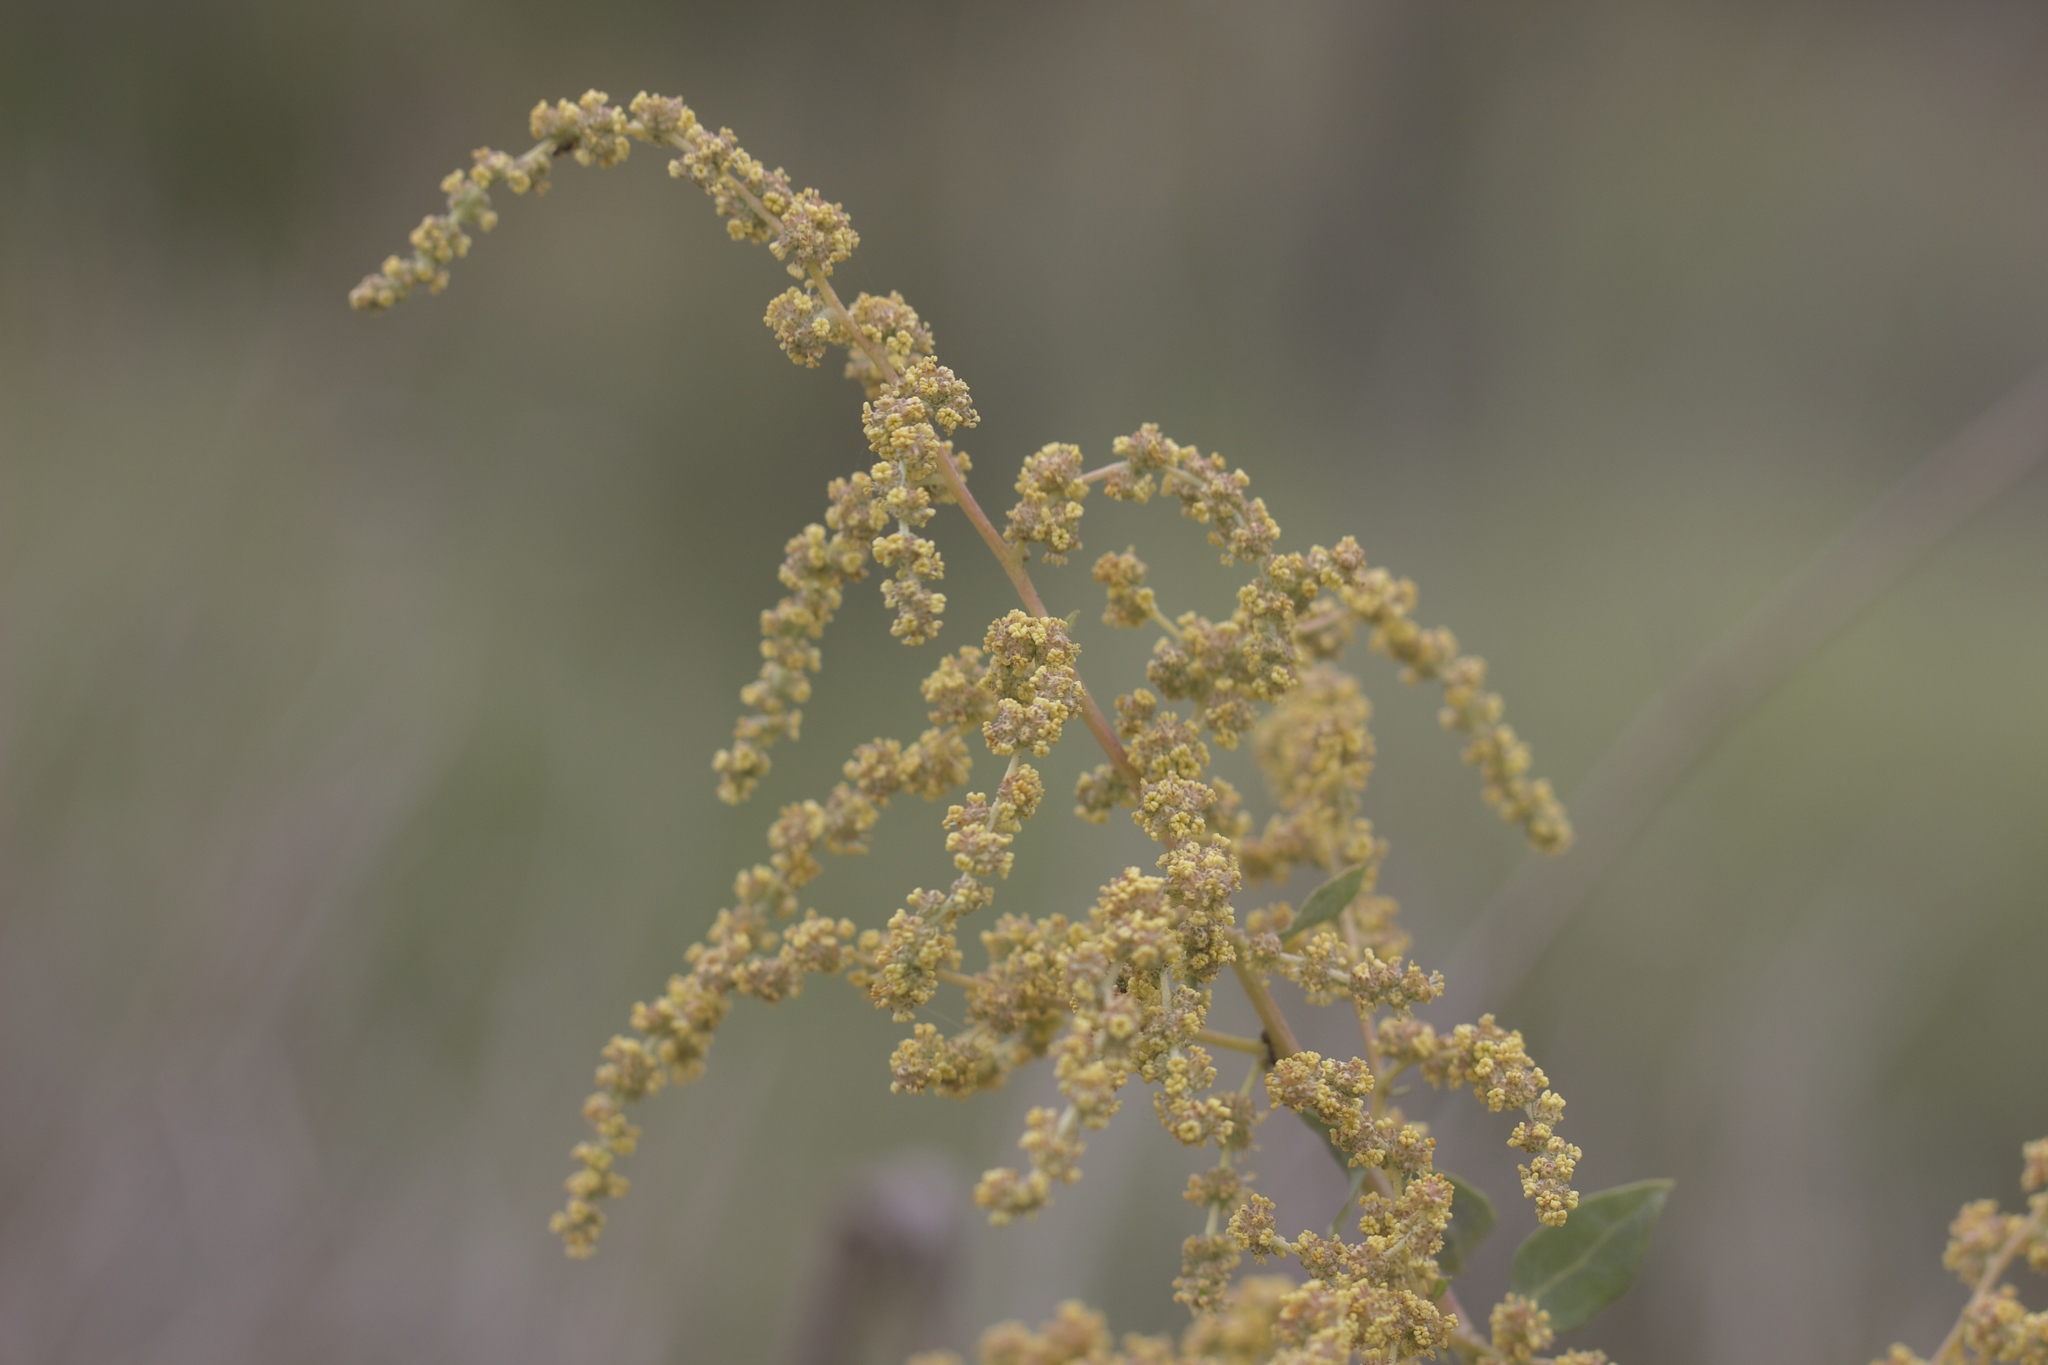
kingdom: Plantae
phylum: Tracheophyta
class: Magnoliopsida
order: Caryophyllales
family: Amaranthaceae
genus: Atriplex
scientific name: Atriplex lentiformis
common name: Big saltbush
